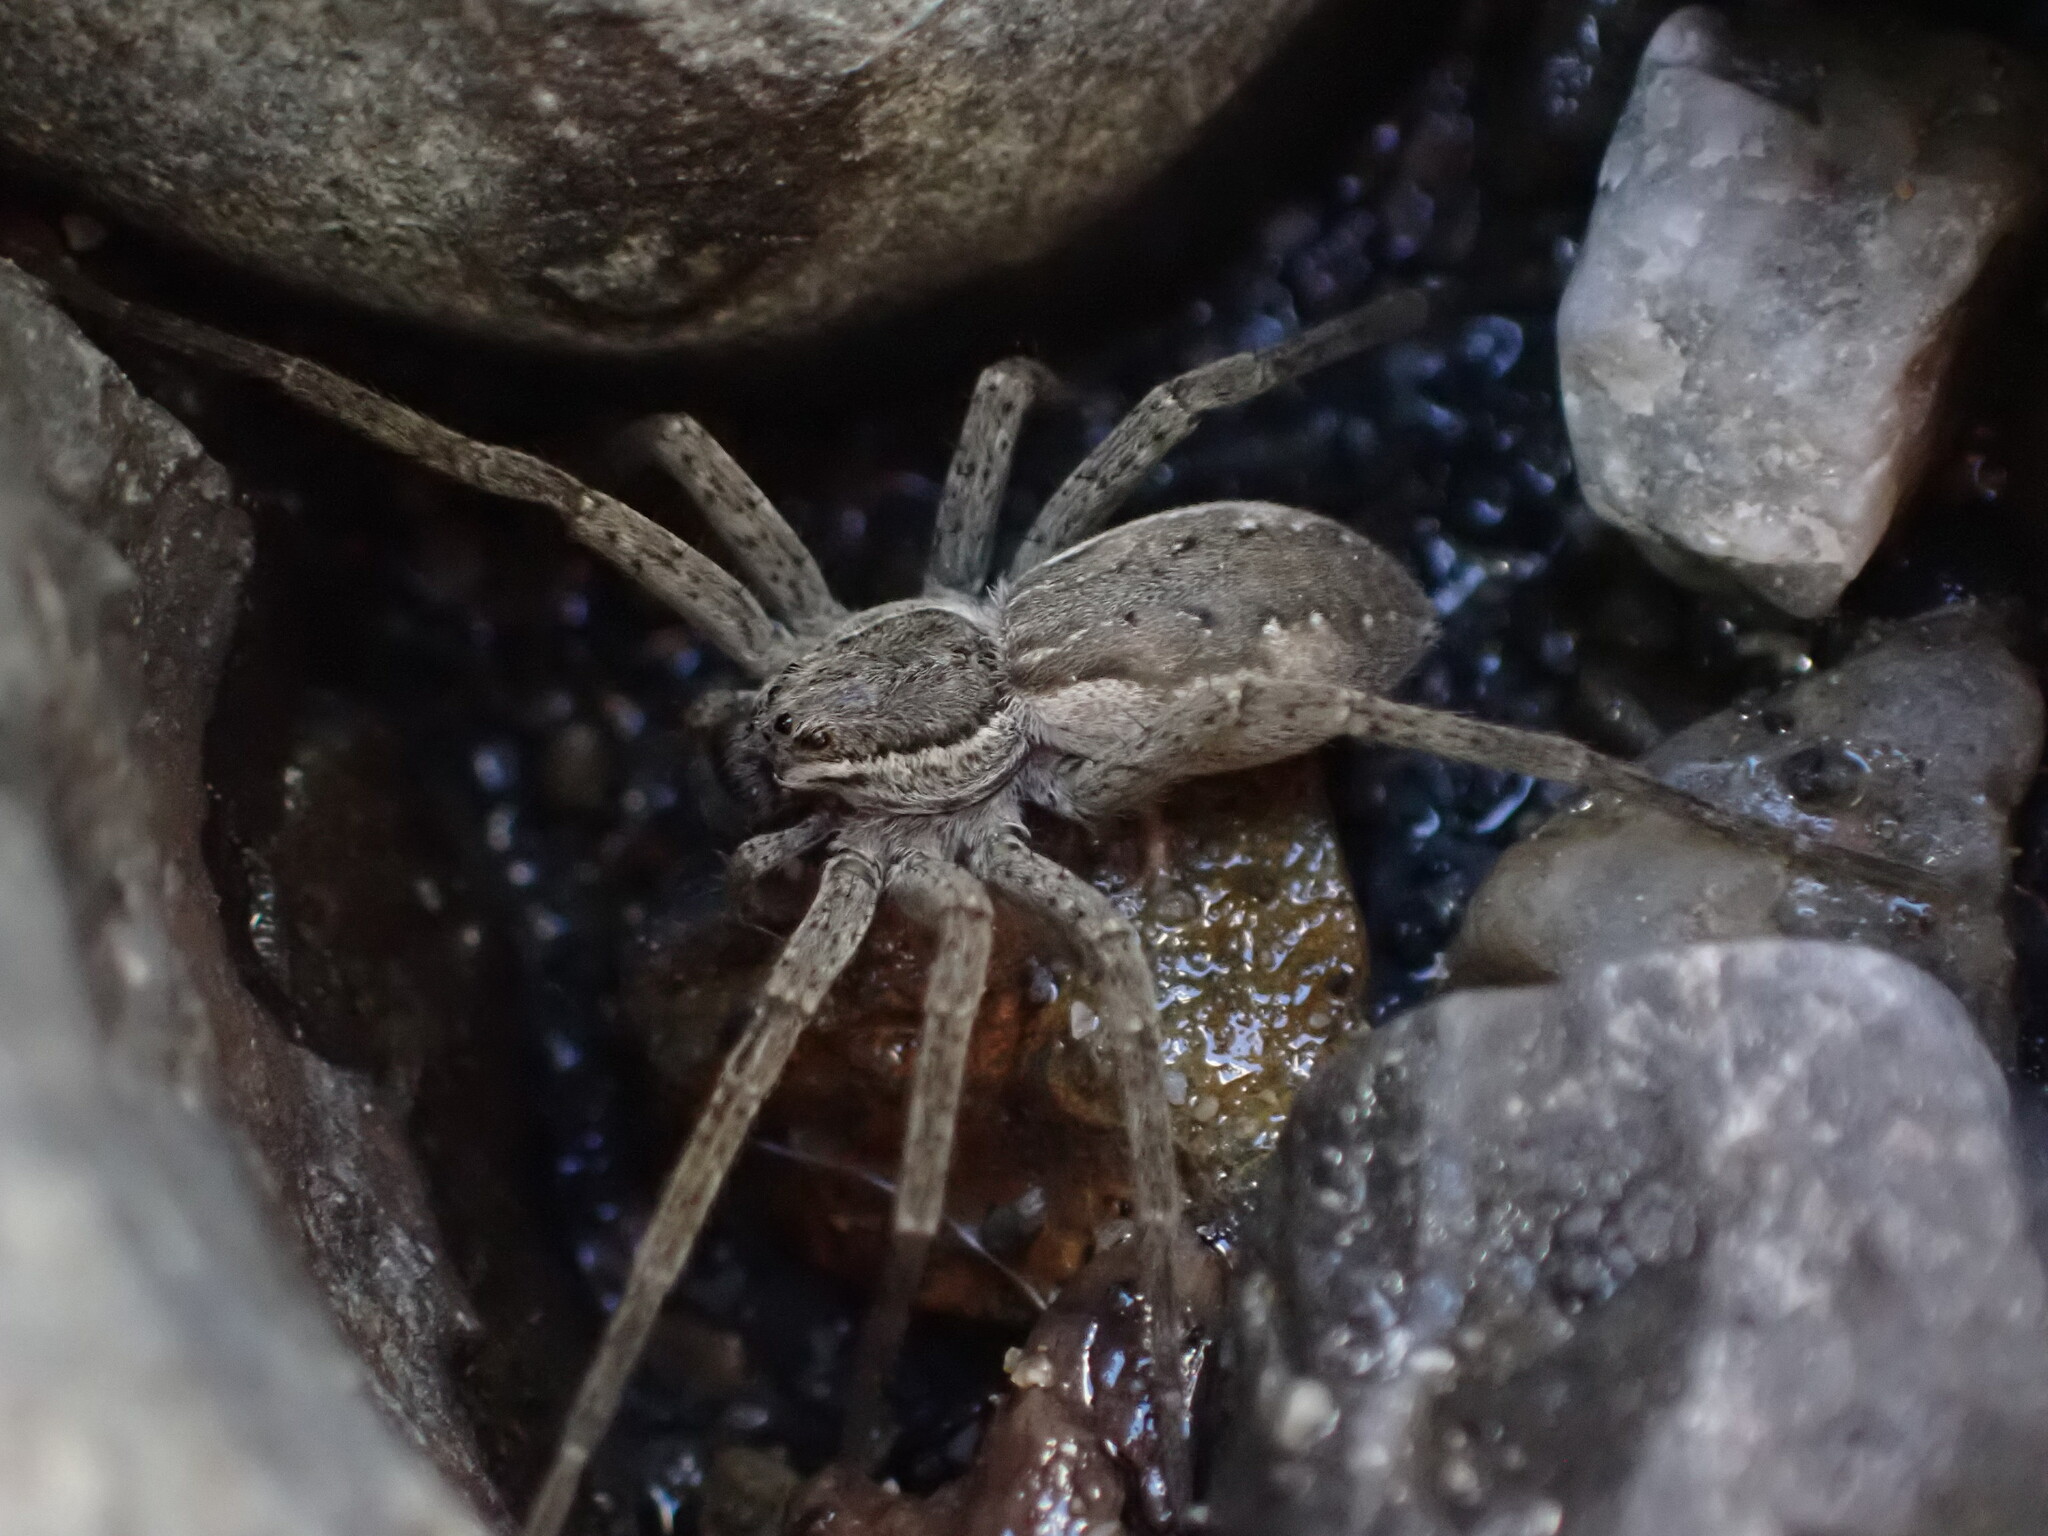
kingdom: Animalia
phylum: Arthropoda
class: Arachnida
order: Araneae
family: Pisauridae
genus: Dolomedes
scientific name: Dolomedes aquaticus
